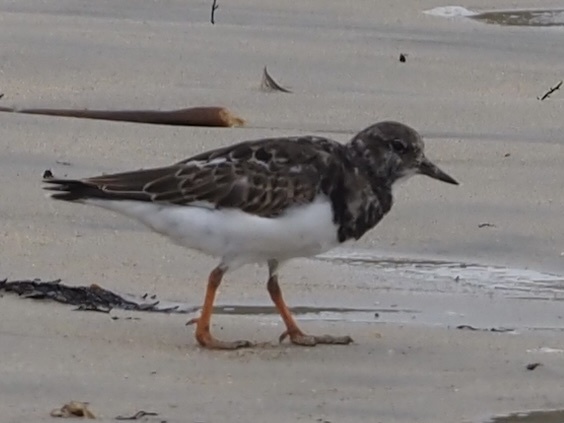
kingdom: Animalia
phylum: Chordata
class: Aves
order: Charadriiformes
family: Scolopacidae
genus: Arenaria
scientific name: Arenaria interpres
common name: Ruddy turnstone
